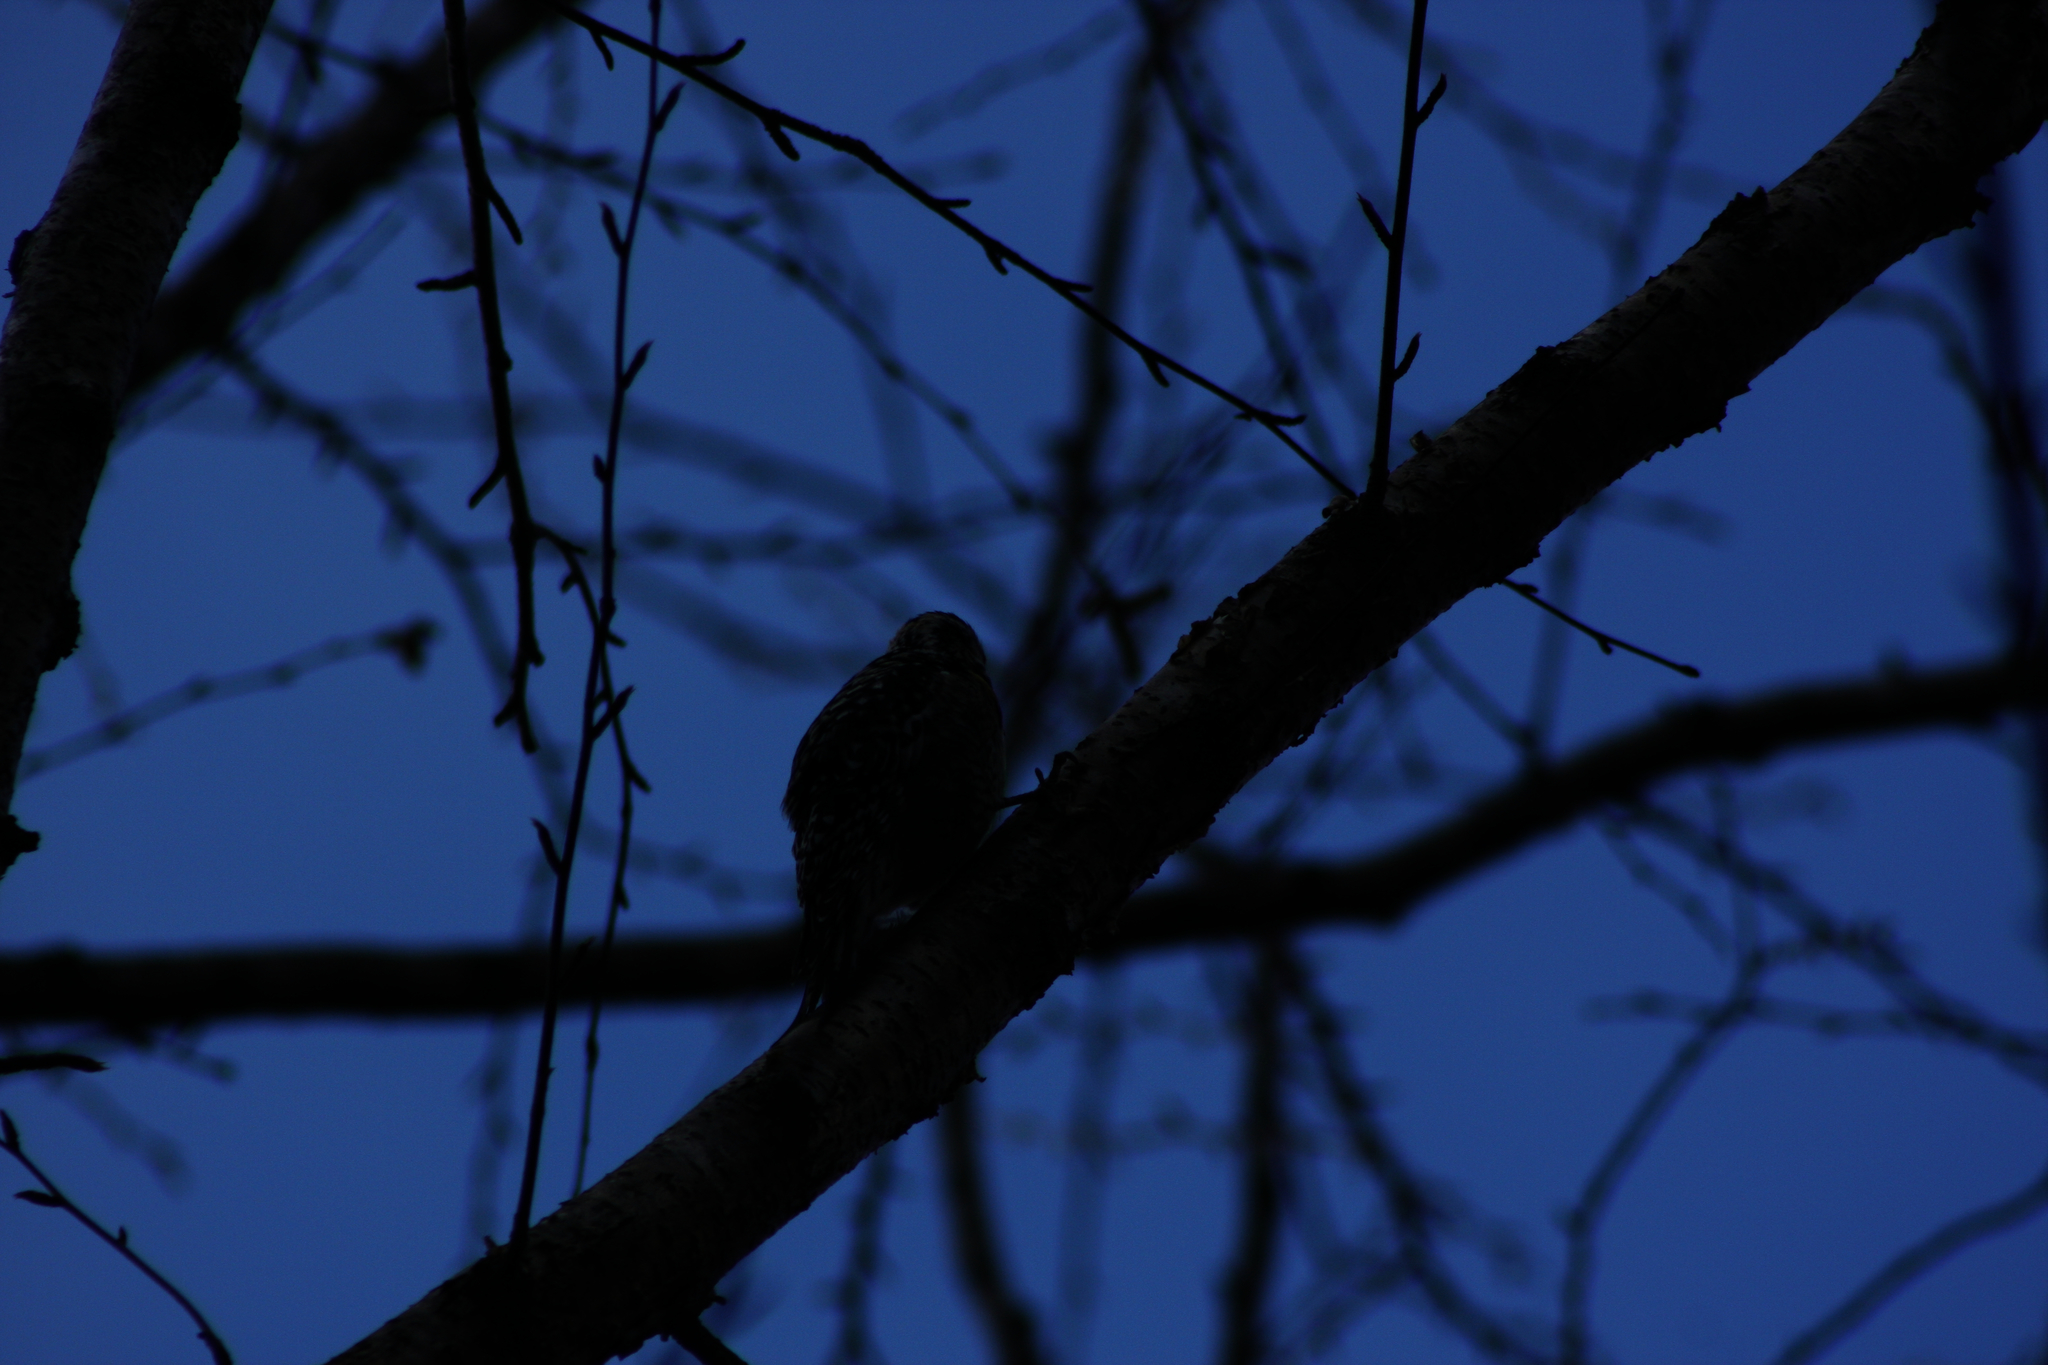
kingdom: Animalia
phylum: Chordata
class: Aves
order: Piciformes
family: Picidae
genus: Sphyrapicus
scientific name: Sphyrapicus varius
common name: Yellow-bellied sapsucker
